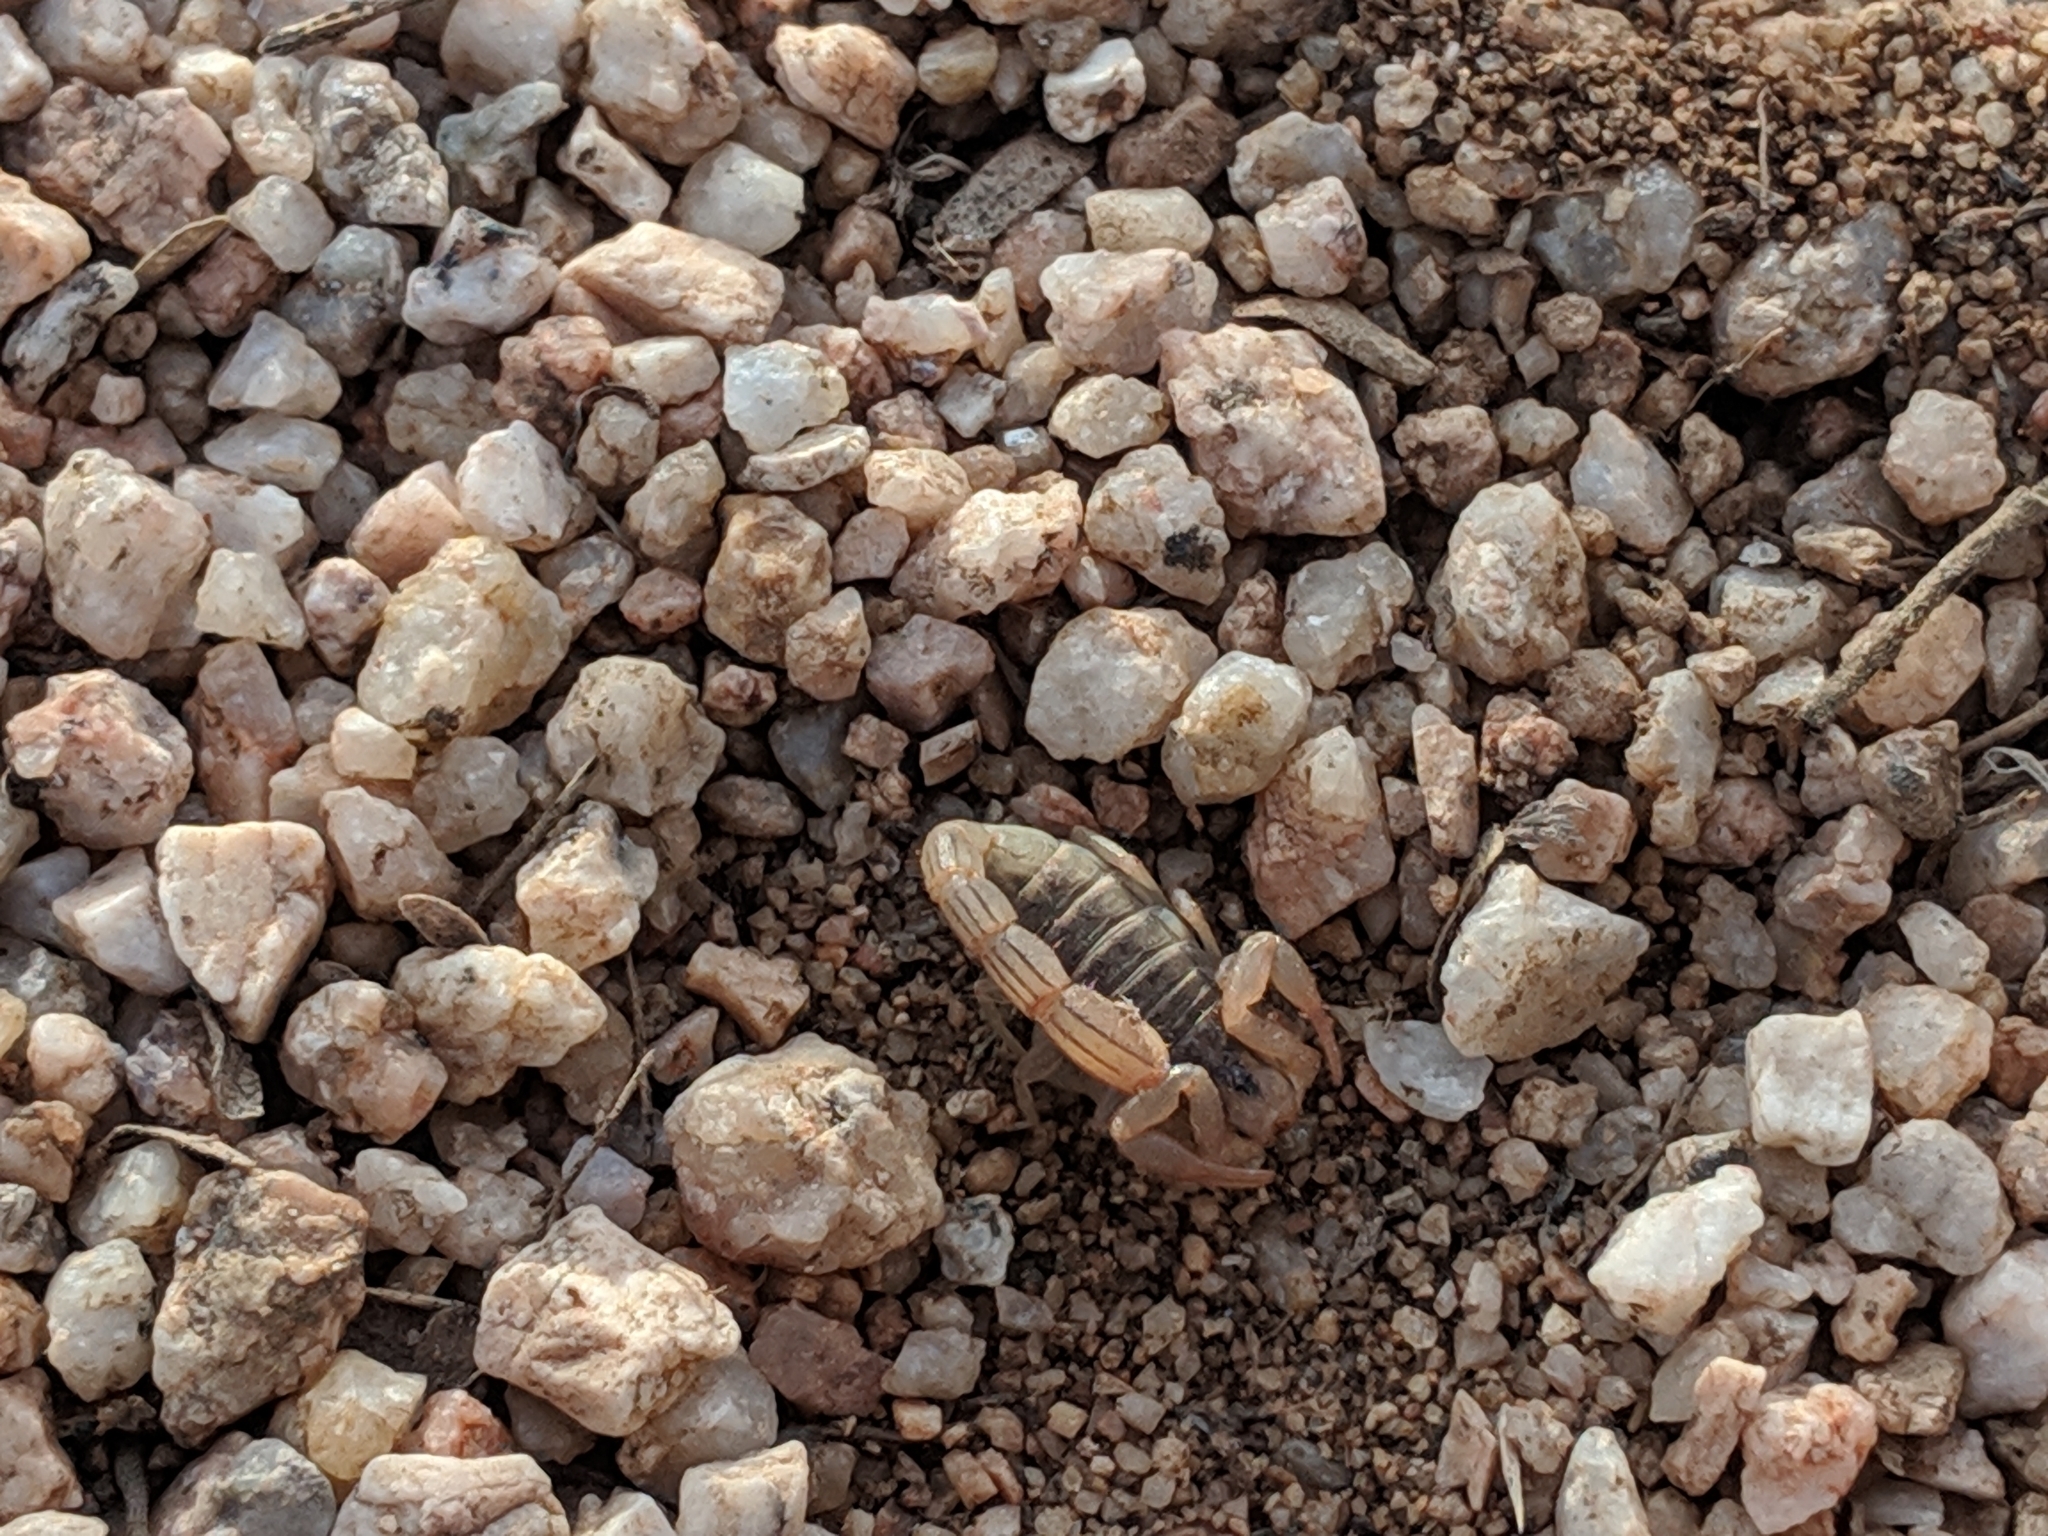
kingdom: Animalia
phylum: Arthropoda
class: Arachnida
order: Scorpiones
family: Vaejovidae
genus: Paravaejovis
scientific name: Paravaejovis spinigerus
